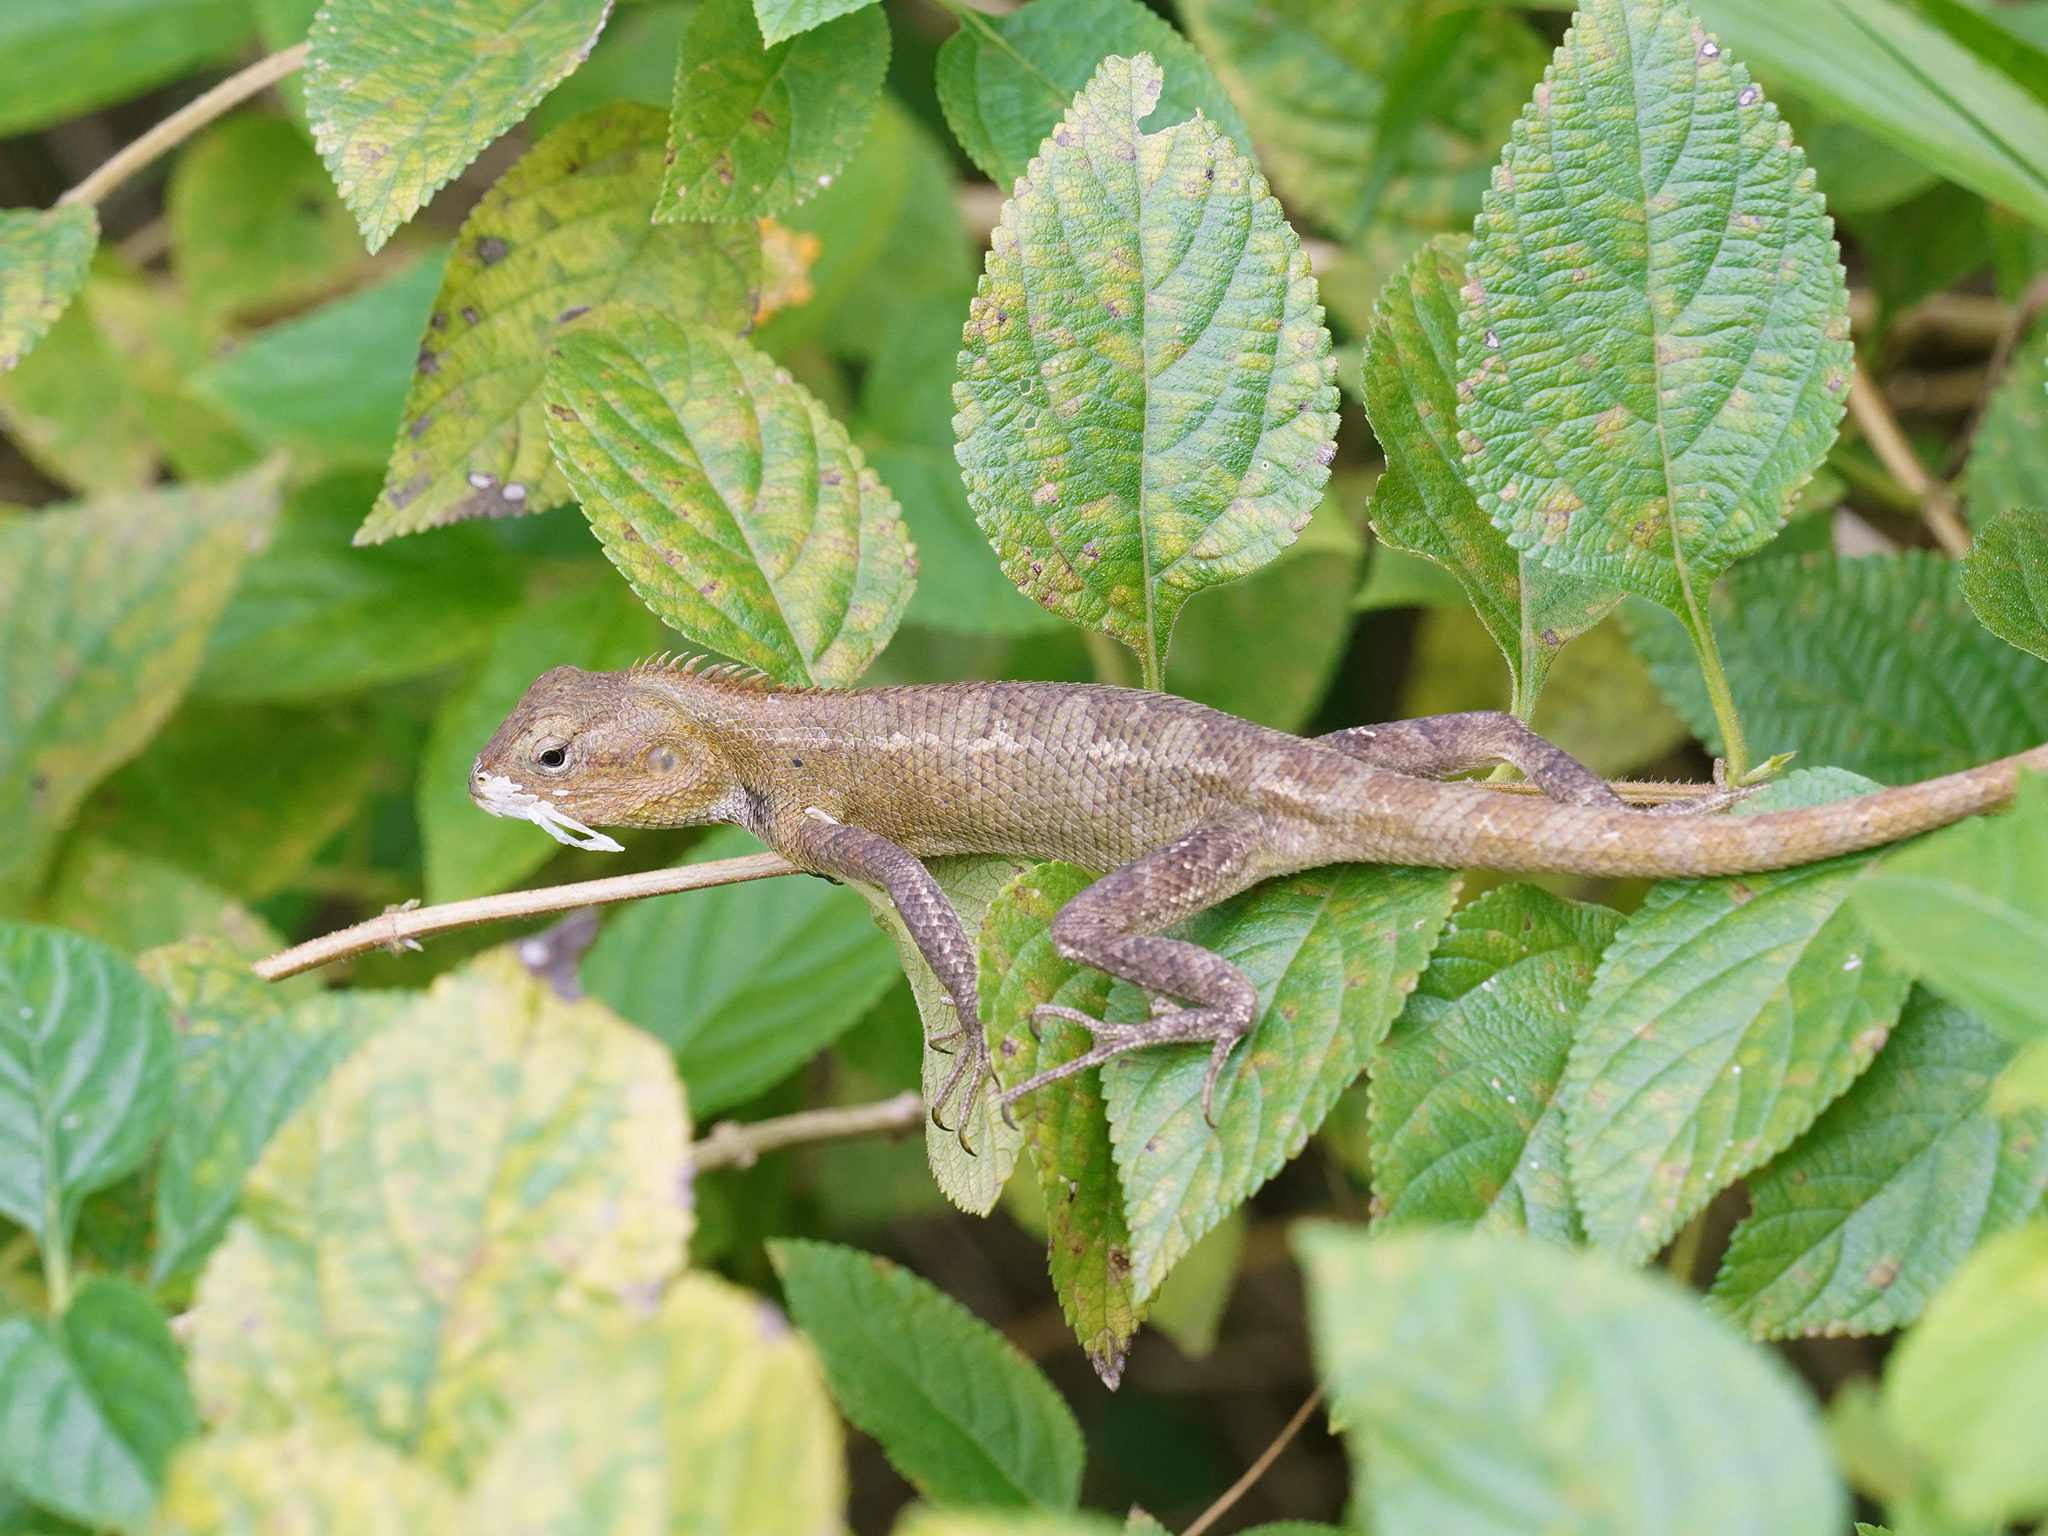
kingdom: Animalia
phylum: Chordata
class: Squamata
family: Agamidae
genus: Calotes
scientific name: Calotes versicolor
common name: Oriental garden lizard
